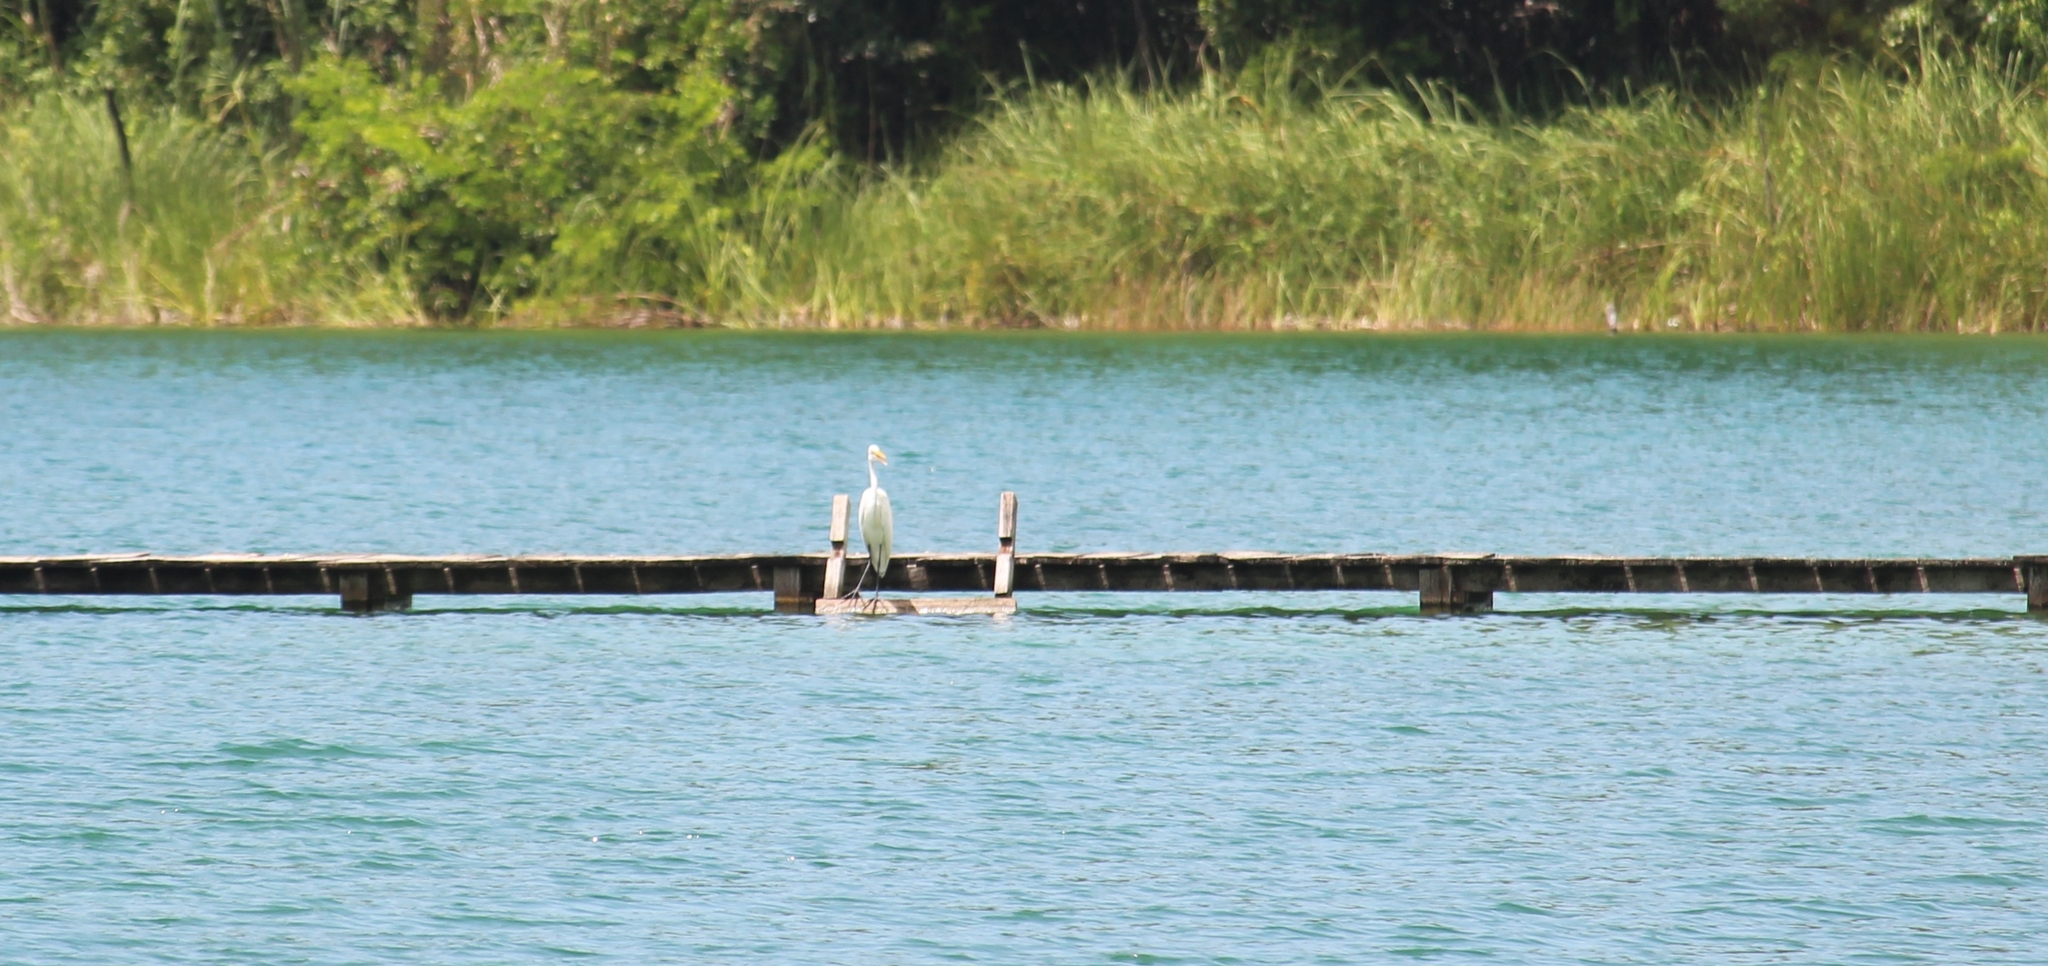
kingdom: Animalia
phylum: Chordata
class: Aves
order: Pelecaniformes
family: Ardeidae
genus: Ardea
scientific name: Ardea alba
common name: Great egret
